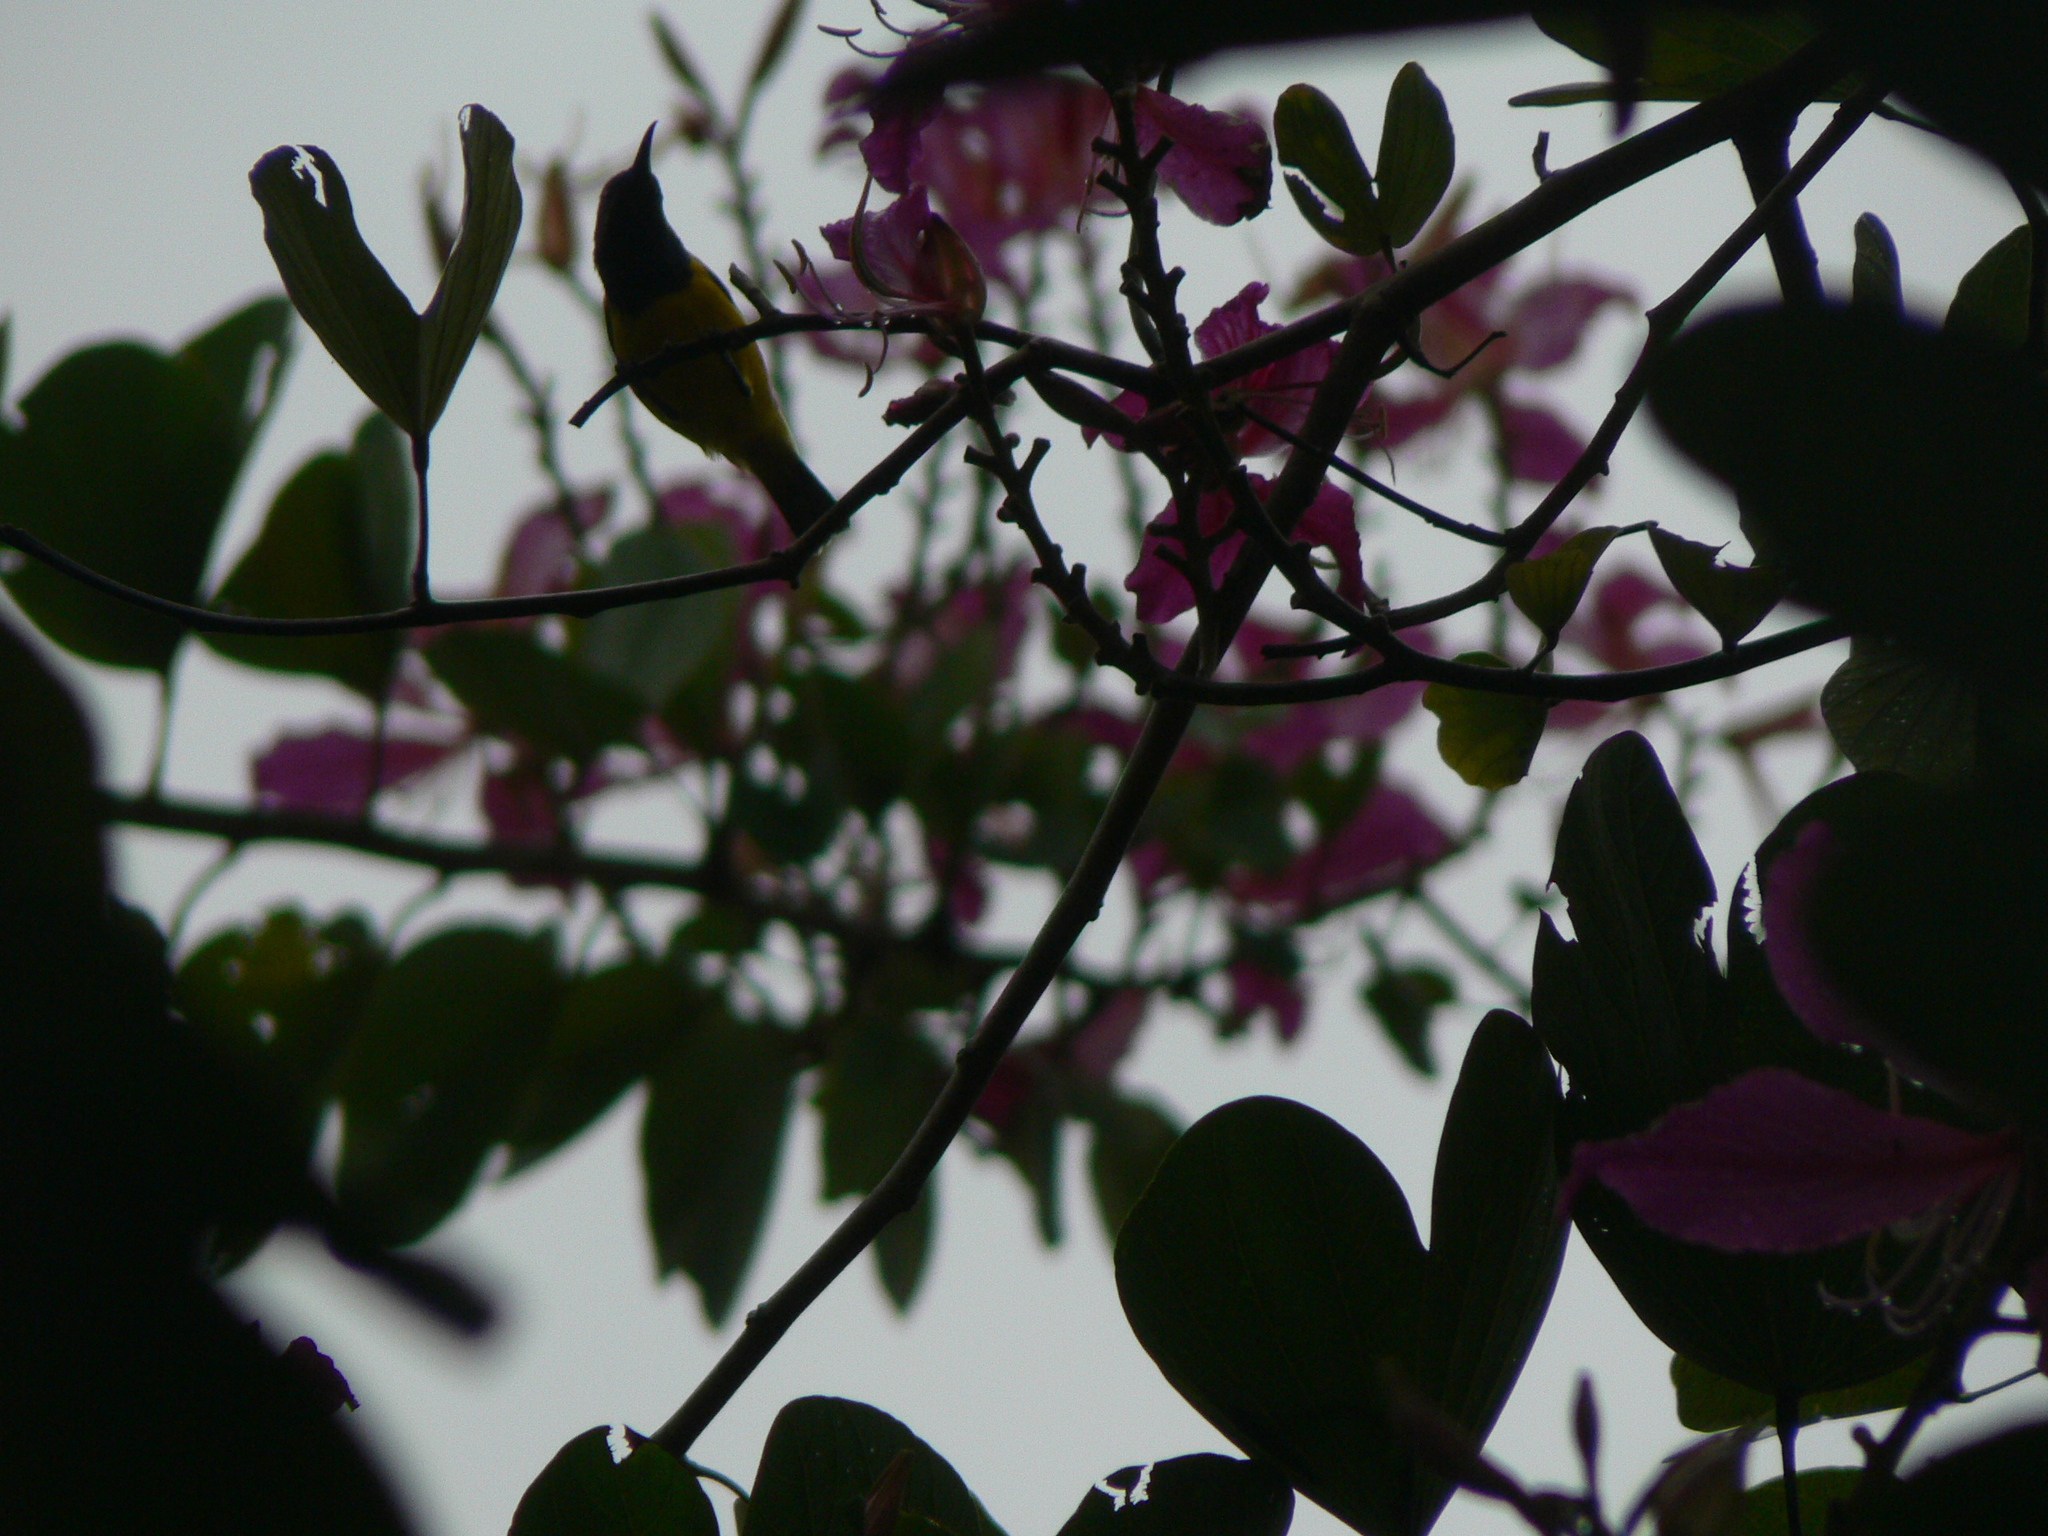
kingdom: Animalia
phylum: Chordata
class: Aves
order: Passeriformes
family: Nectariniidae
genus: Cinnyris
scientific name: Cinnyris
